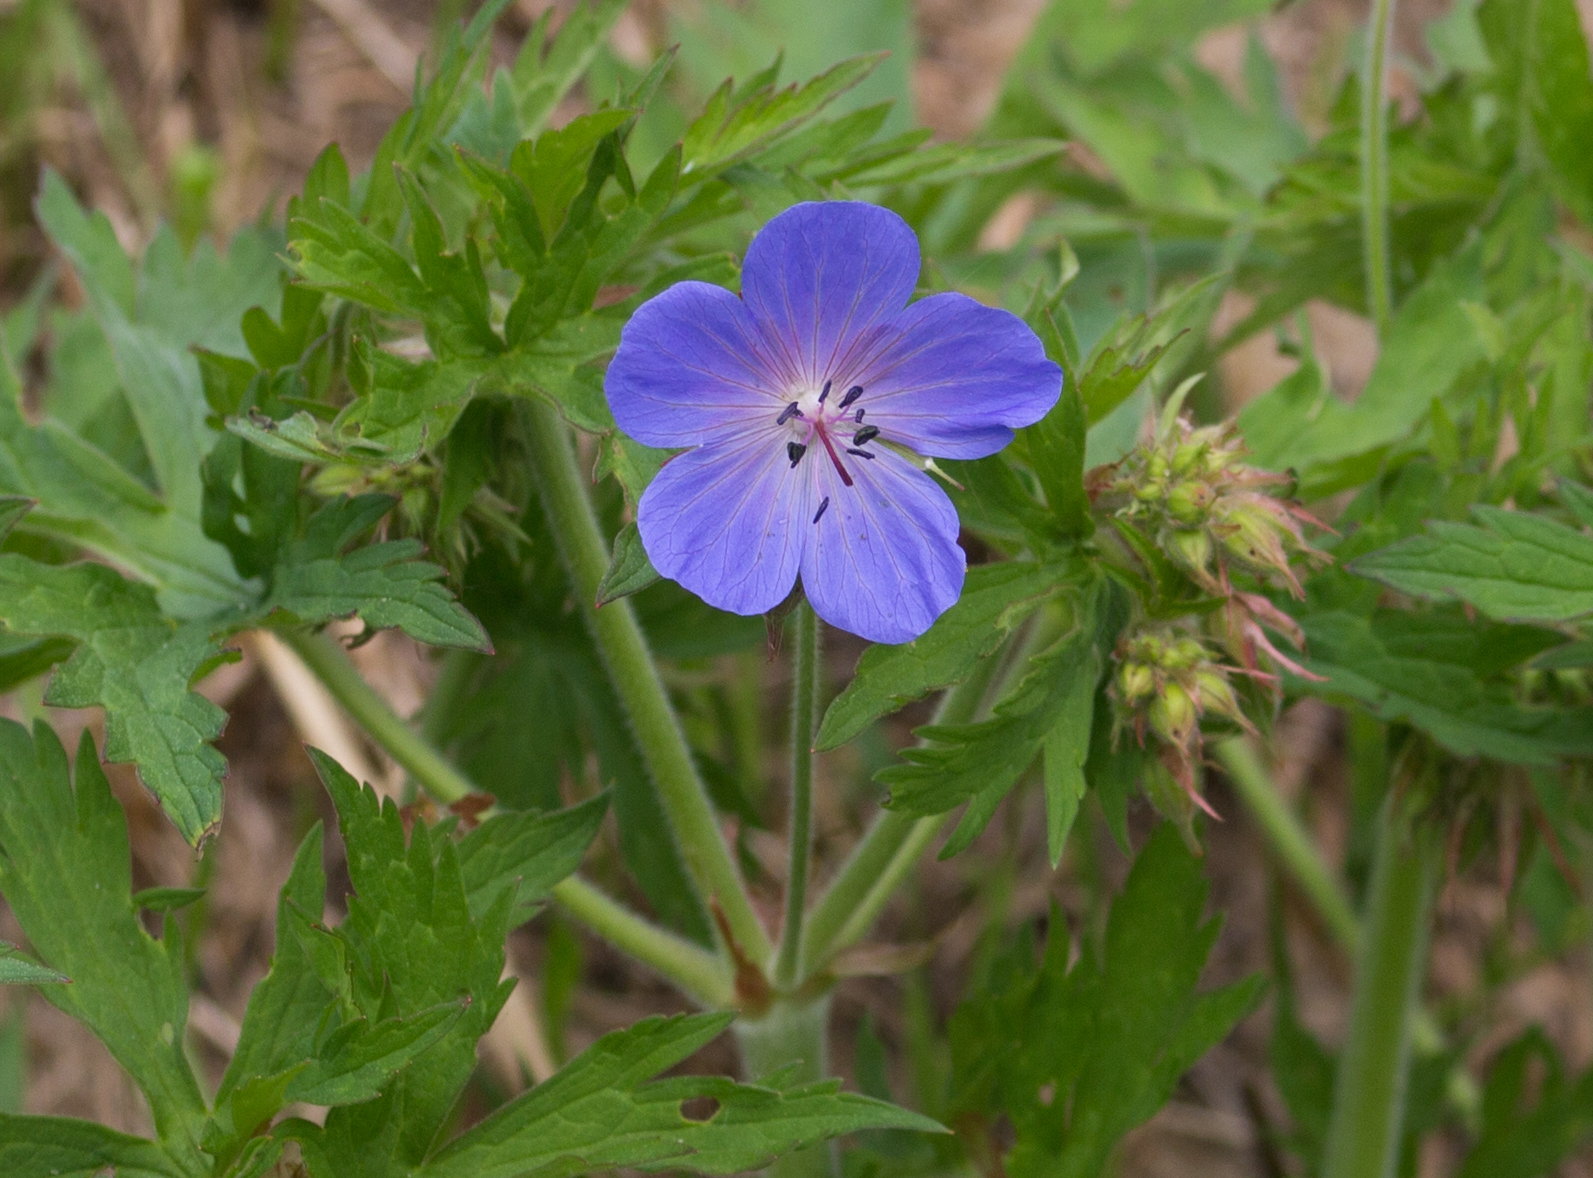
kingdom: Plantae
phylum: Tracheophyta
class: Magnoliopsida
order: Geraniales
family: Geraniaceae
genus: Geranium
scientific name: Geranium pratense
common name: Meadow crane's-bill
